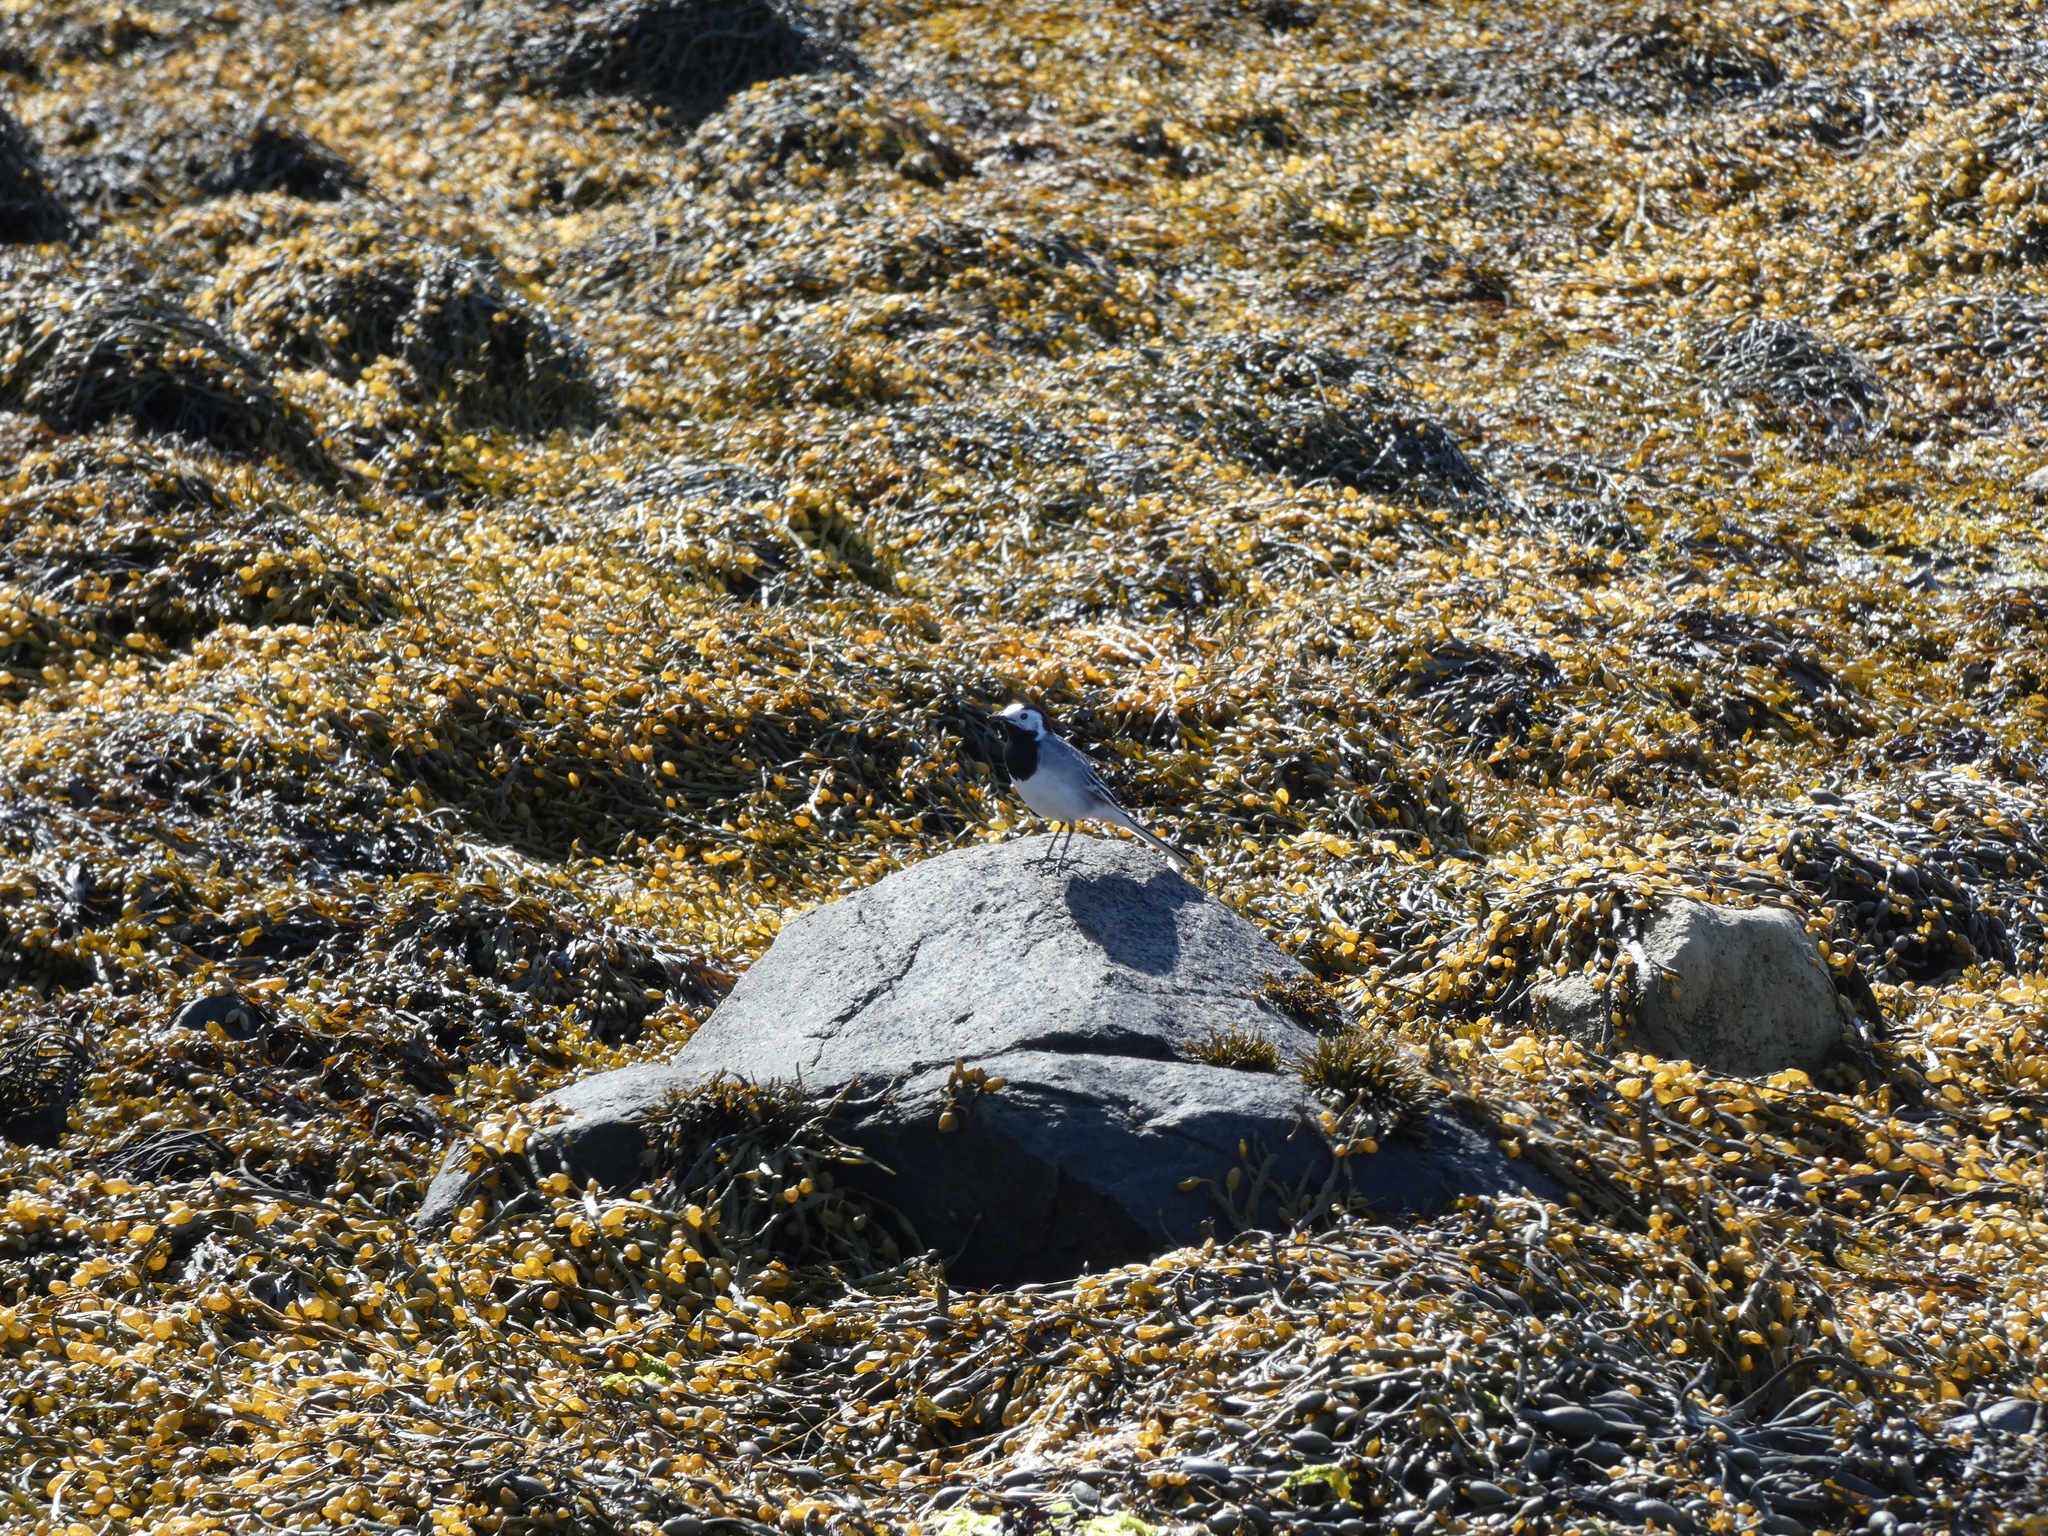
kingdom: Animalia
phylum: Chordata
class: Aves
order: Passeriformes
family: Motacillidae
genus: Motacilla
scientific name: Motacilla alba
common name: White wagtail
